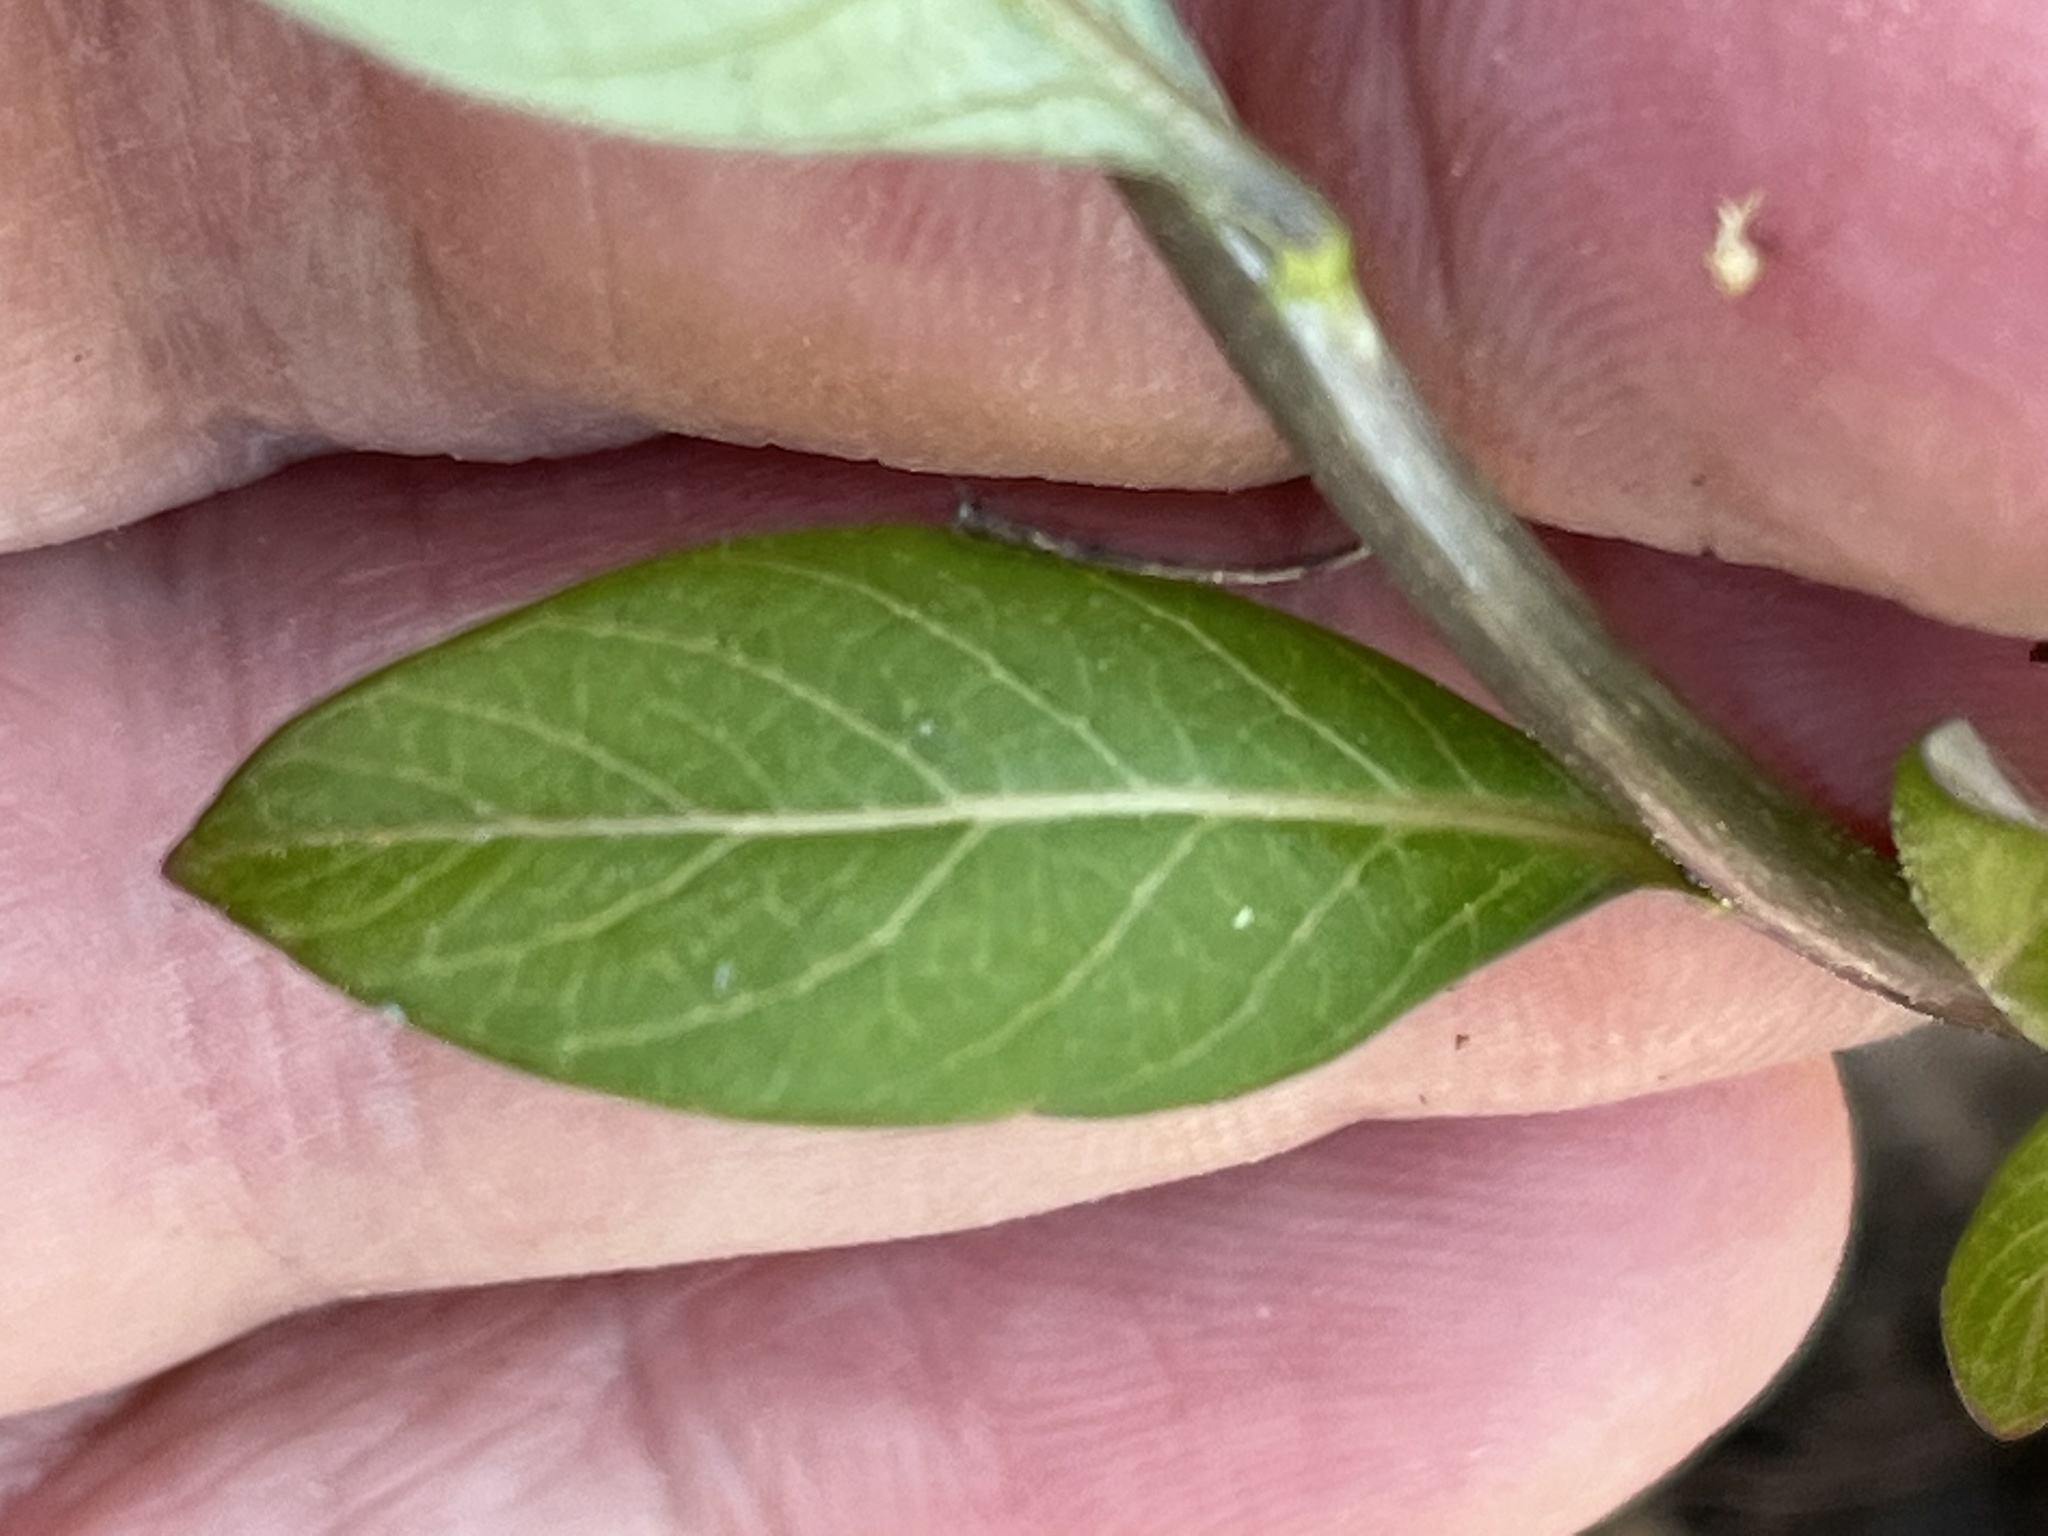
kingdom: Plantae
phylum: Tracheophyta
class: Magnoliopsida
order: Gentianales
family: Apocynaceae
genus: Amsonia
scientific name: Amsonia tabernaemontana
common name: Texas-star
